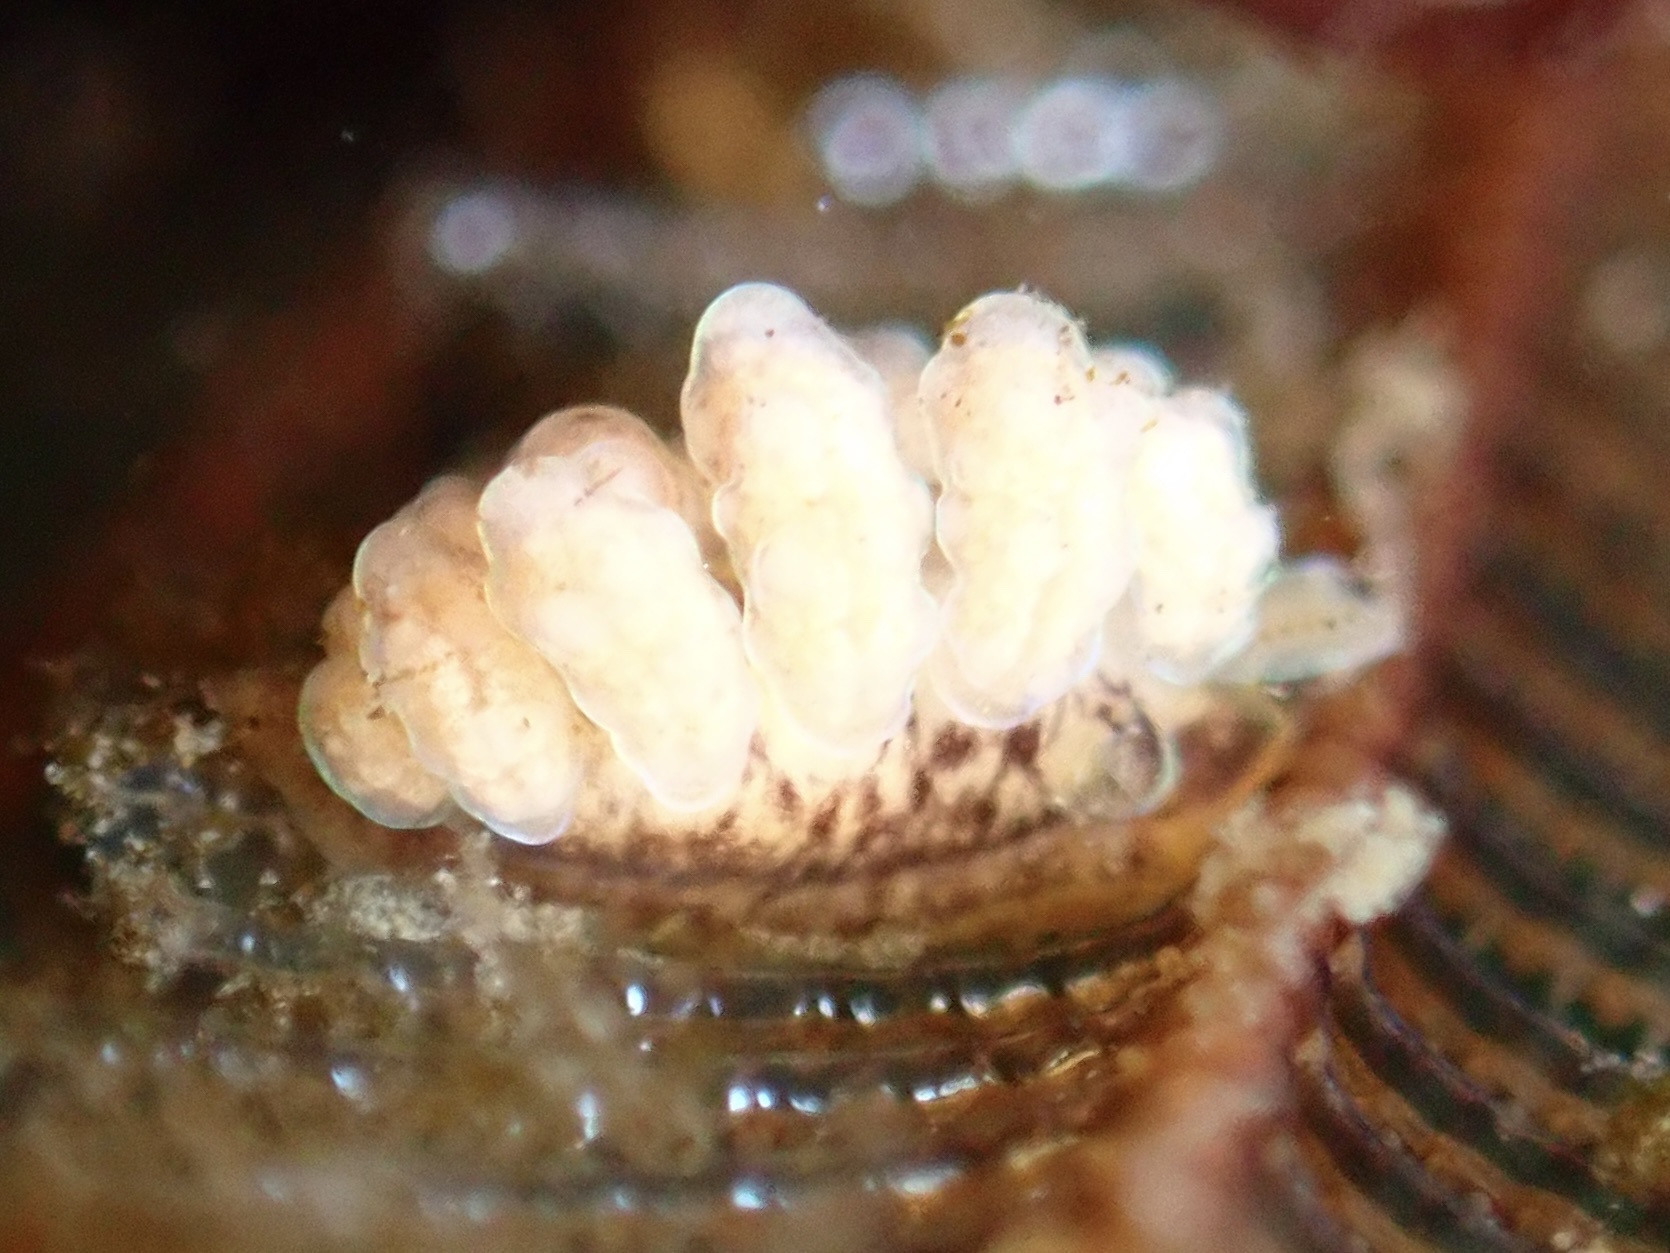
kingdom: Animalia
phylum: Mollusca
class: Gastropoda
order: Nudibranchia
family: Dotidae
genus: Doto
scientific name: Doto columbiana
